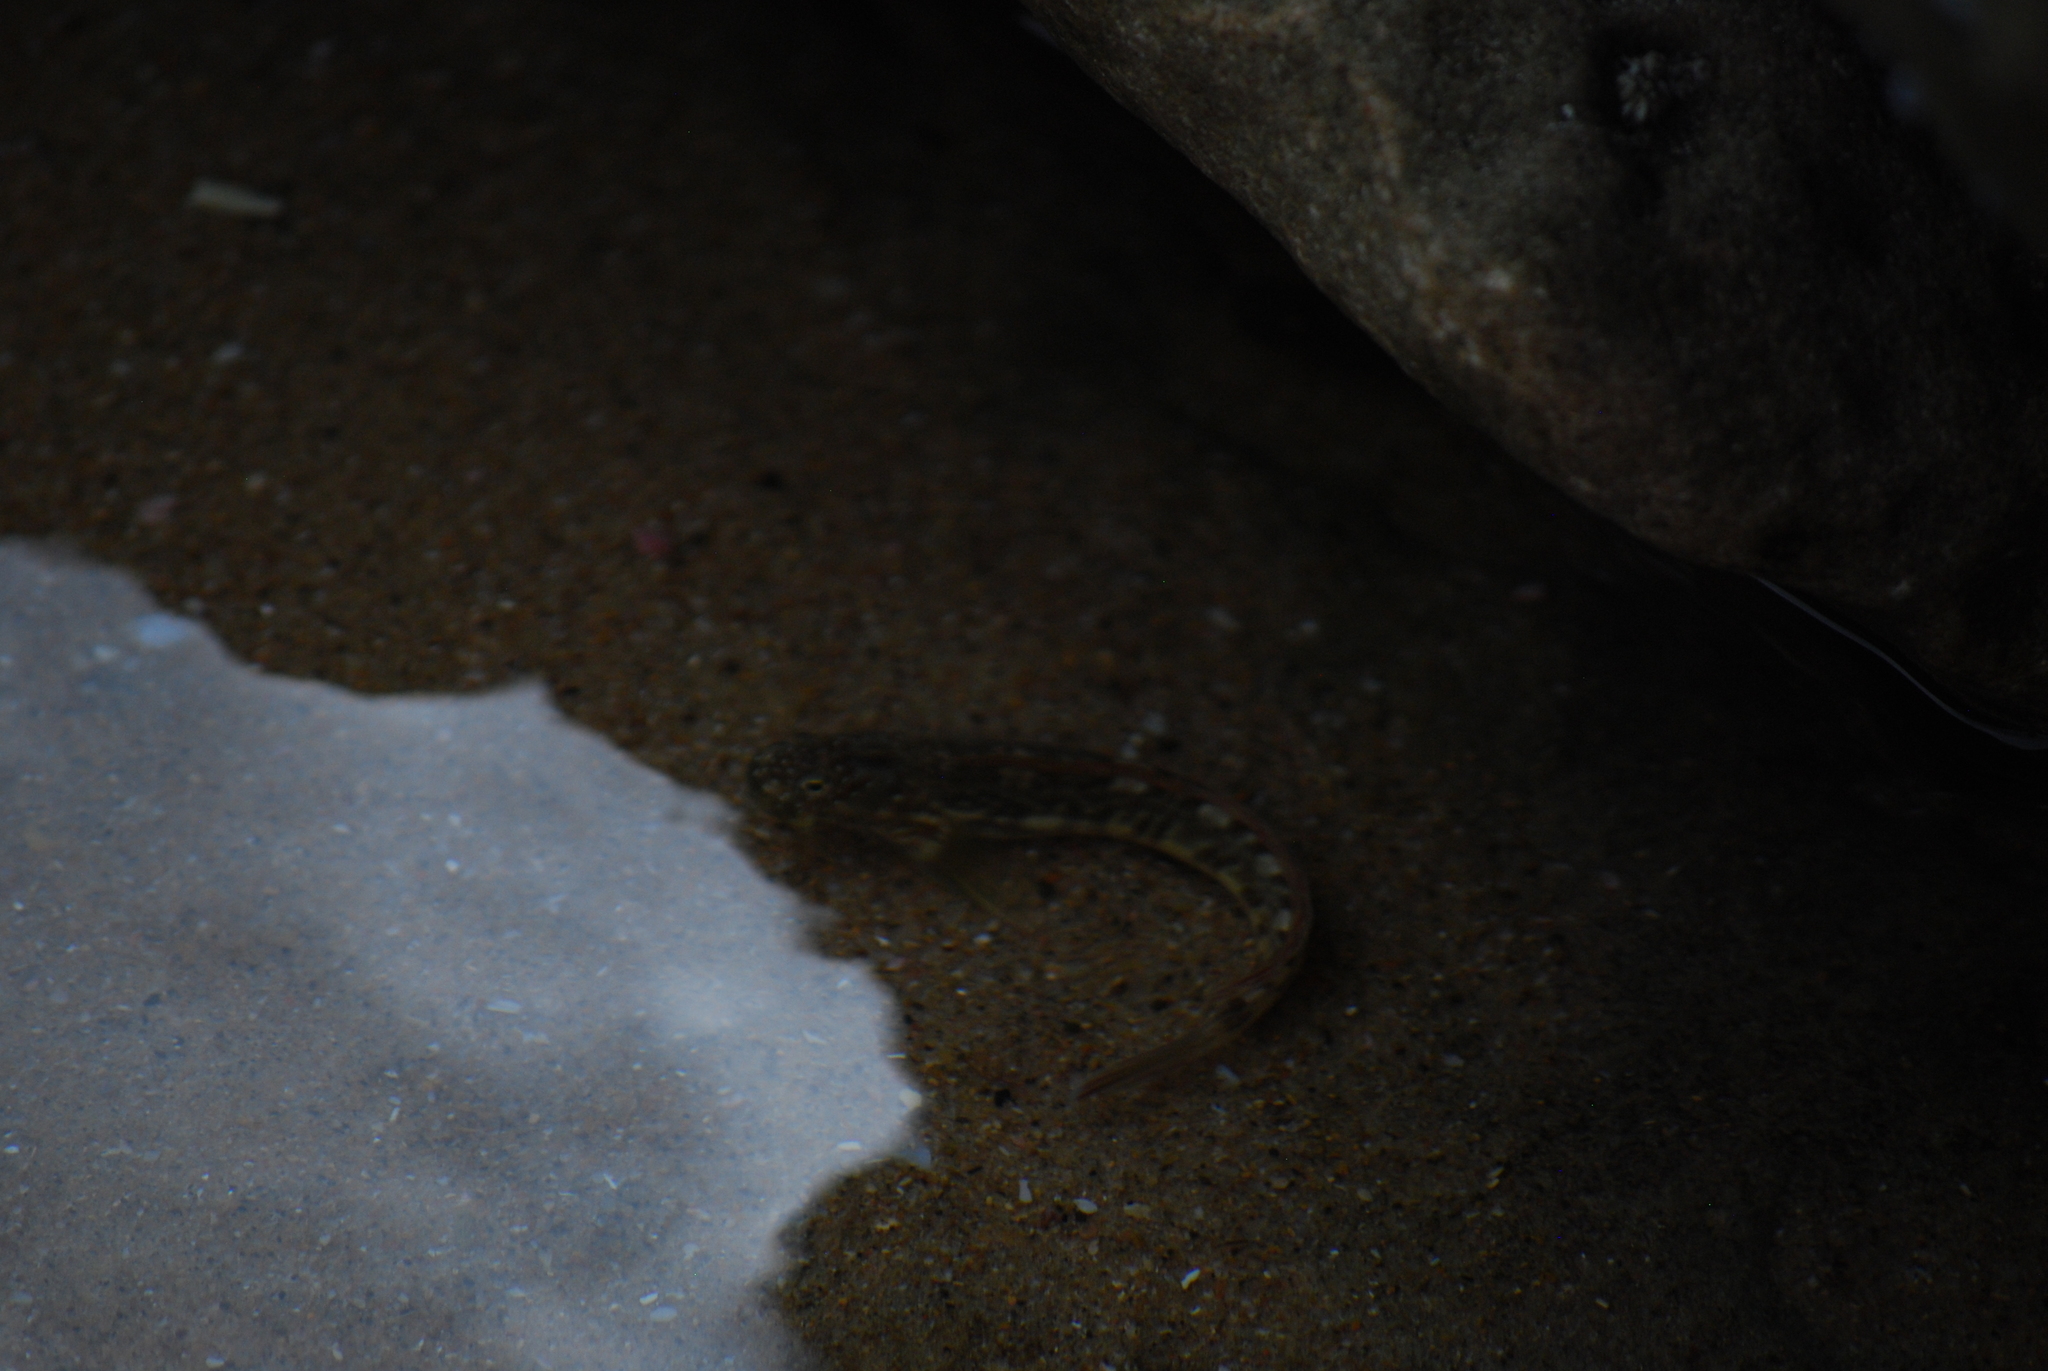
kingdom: Animalia
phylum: Chordata
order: Perciformes
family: Blenniidae
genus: Istiblennius
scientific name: Istiblennius bellus
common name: Beautiful rockskipper
